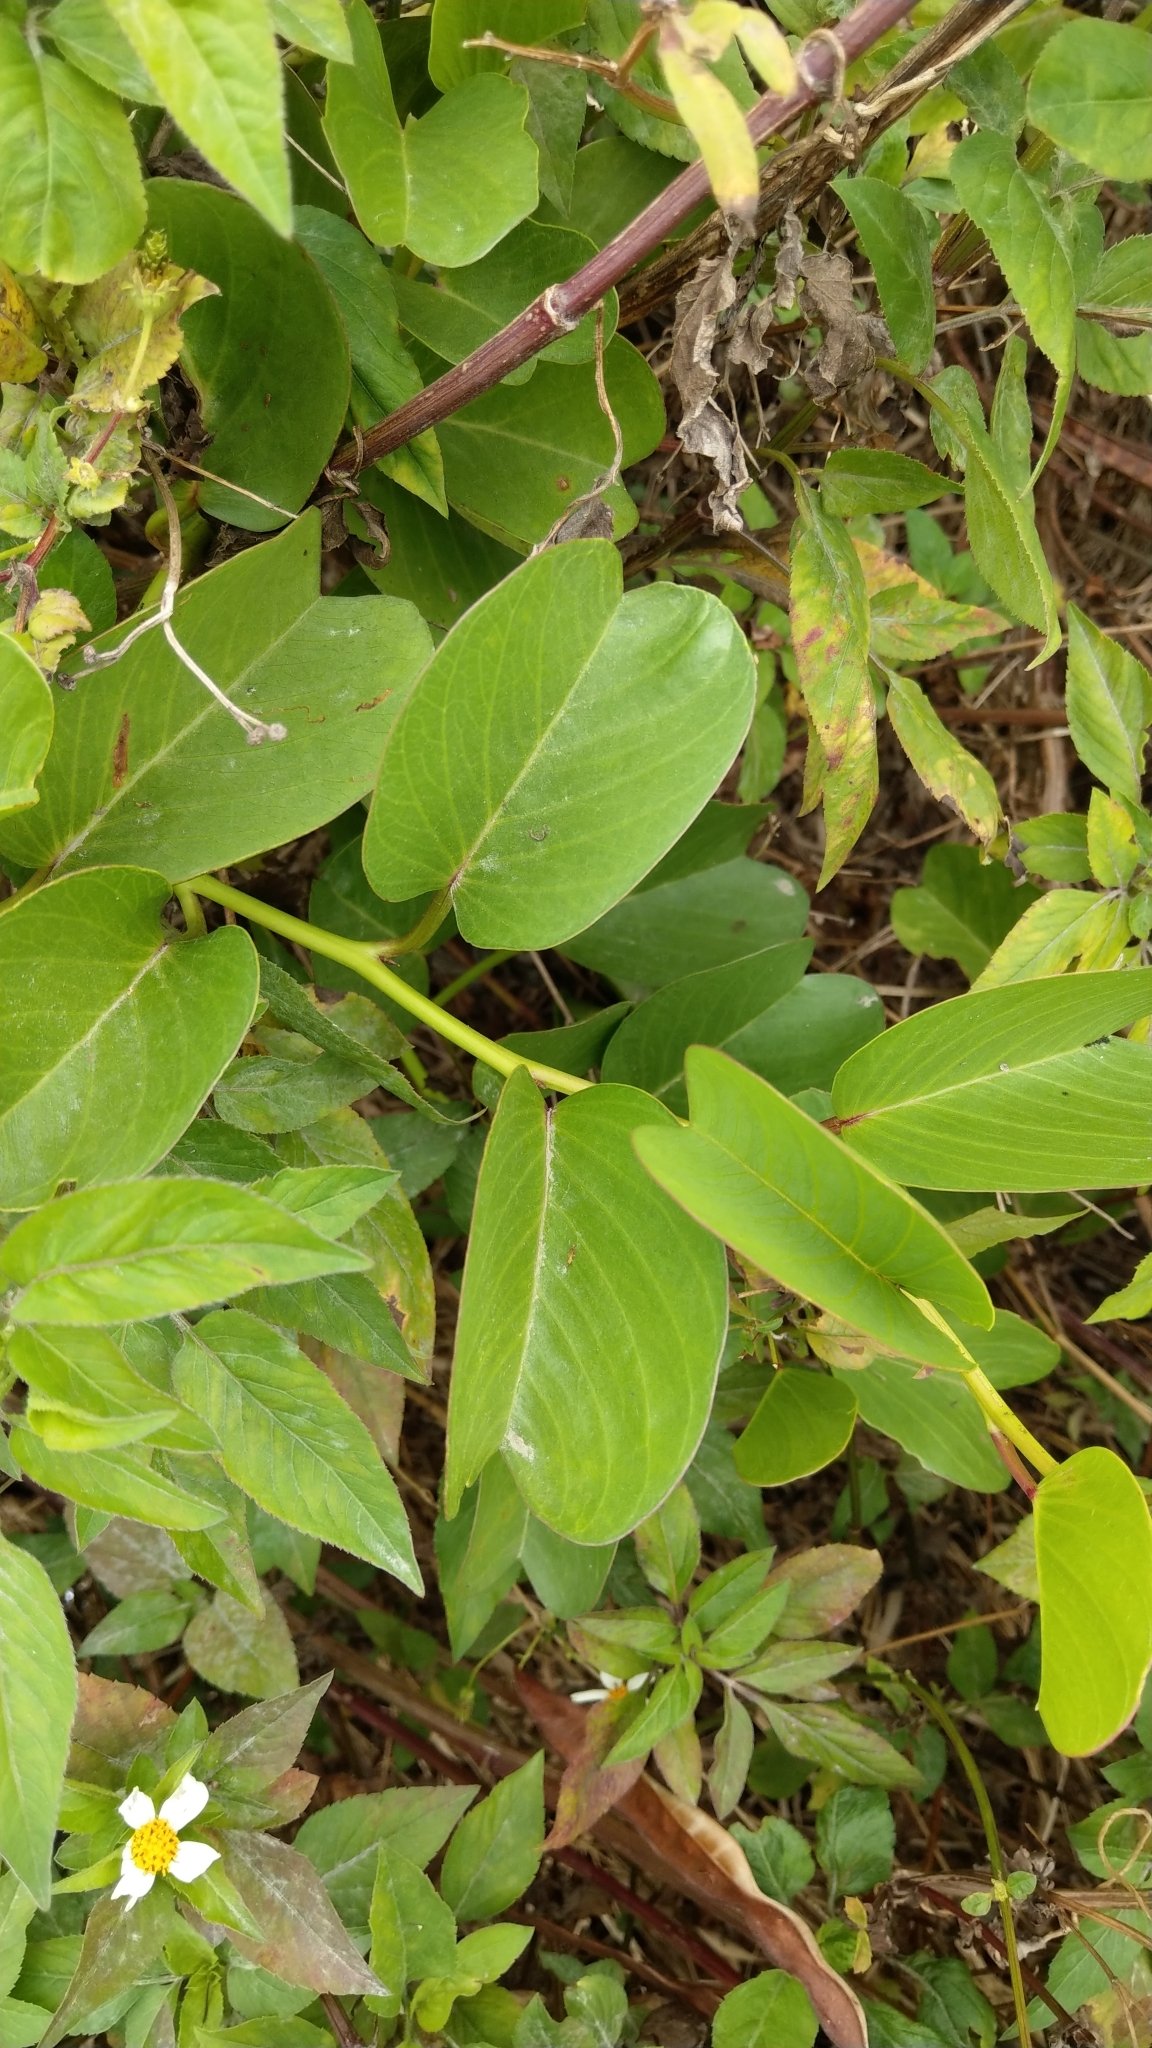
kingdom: Plantae
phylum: Tracheophyta
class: Magnoliopsida
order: Solanales
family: Convolvulaceae
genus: Ipomoea
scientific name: Ipomoea pes-caprae
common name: Beach morning glory
